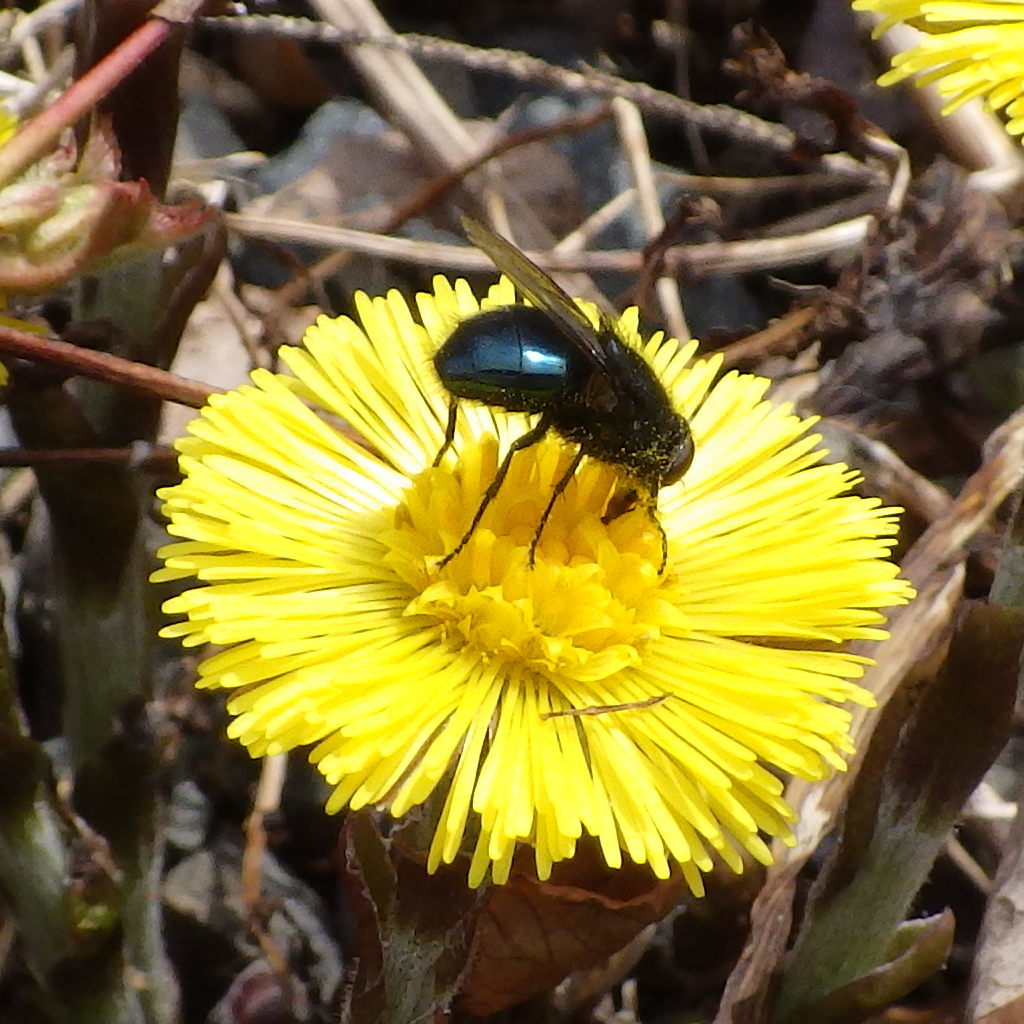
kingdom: Animalia
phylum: Arthropoda
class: Insecta
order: Diptera
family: Calliphoridae
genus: Protophormia
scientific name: Protophormia terraenovae
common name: Blackbottle
